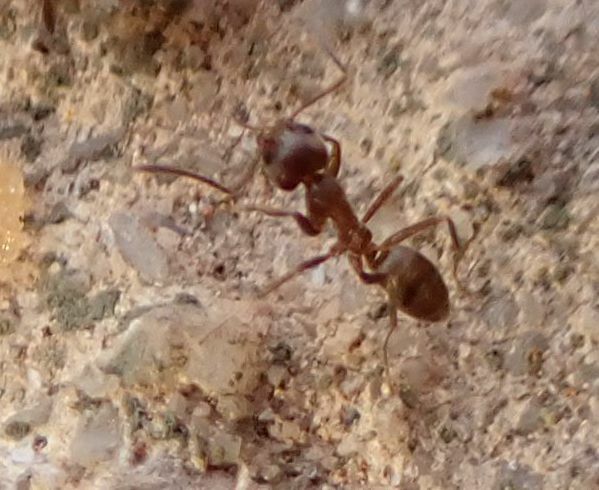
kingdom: Animalia
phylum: Arthropoda
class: Insecta
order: Hymenoptera
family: Formicidae
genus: Linepithema
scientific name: Linepithema humile
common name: Argentine ant
